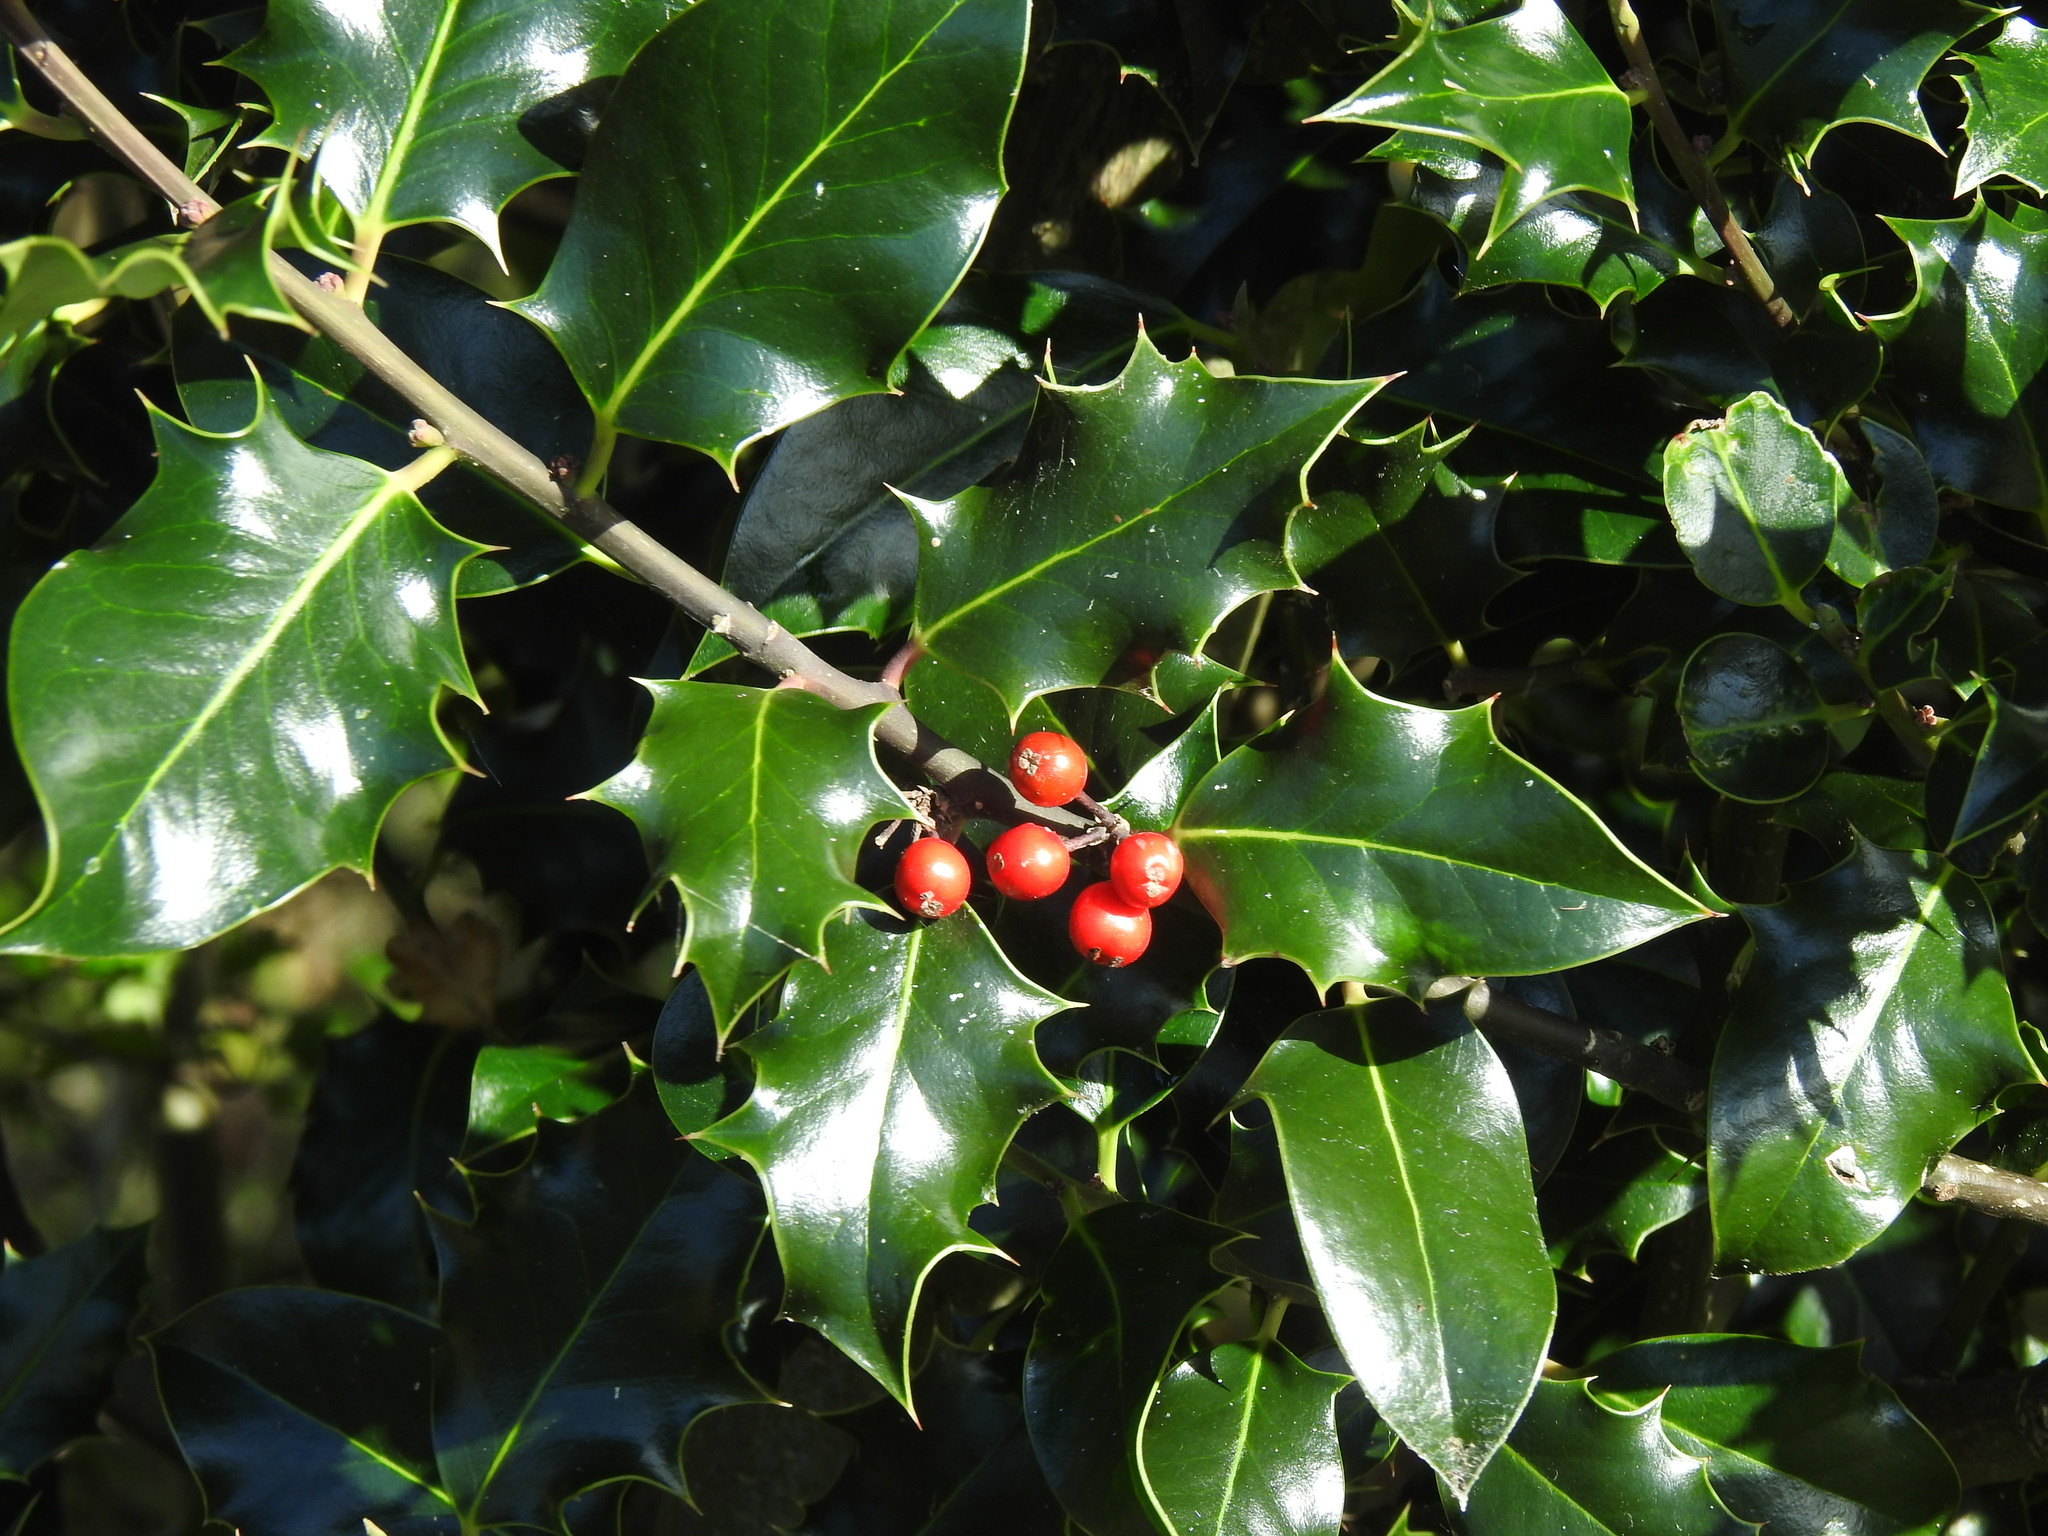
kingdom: Plantae
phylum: Tracheophyta
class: Magnoliopsida
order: Aquifoliales
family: Aquifoliaceae
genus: Ilex
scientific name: Ilex aquifolium
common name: English holly
